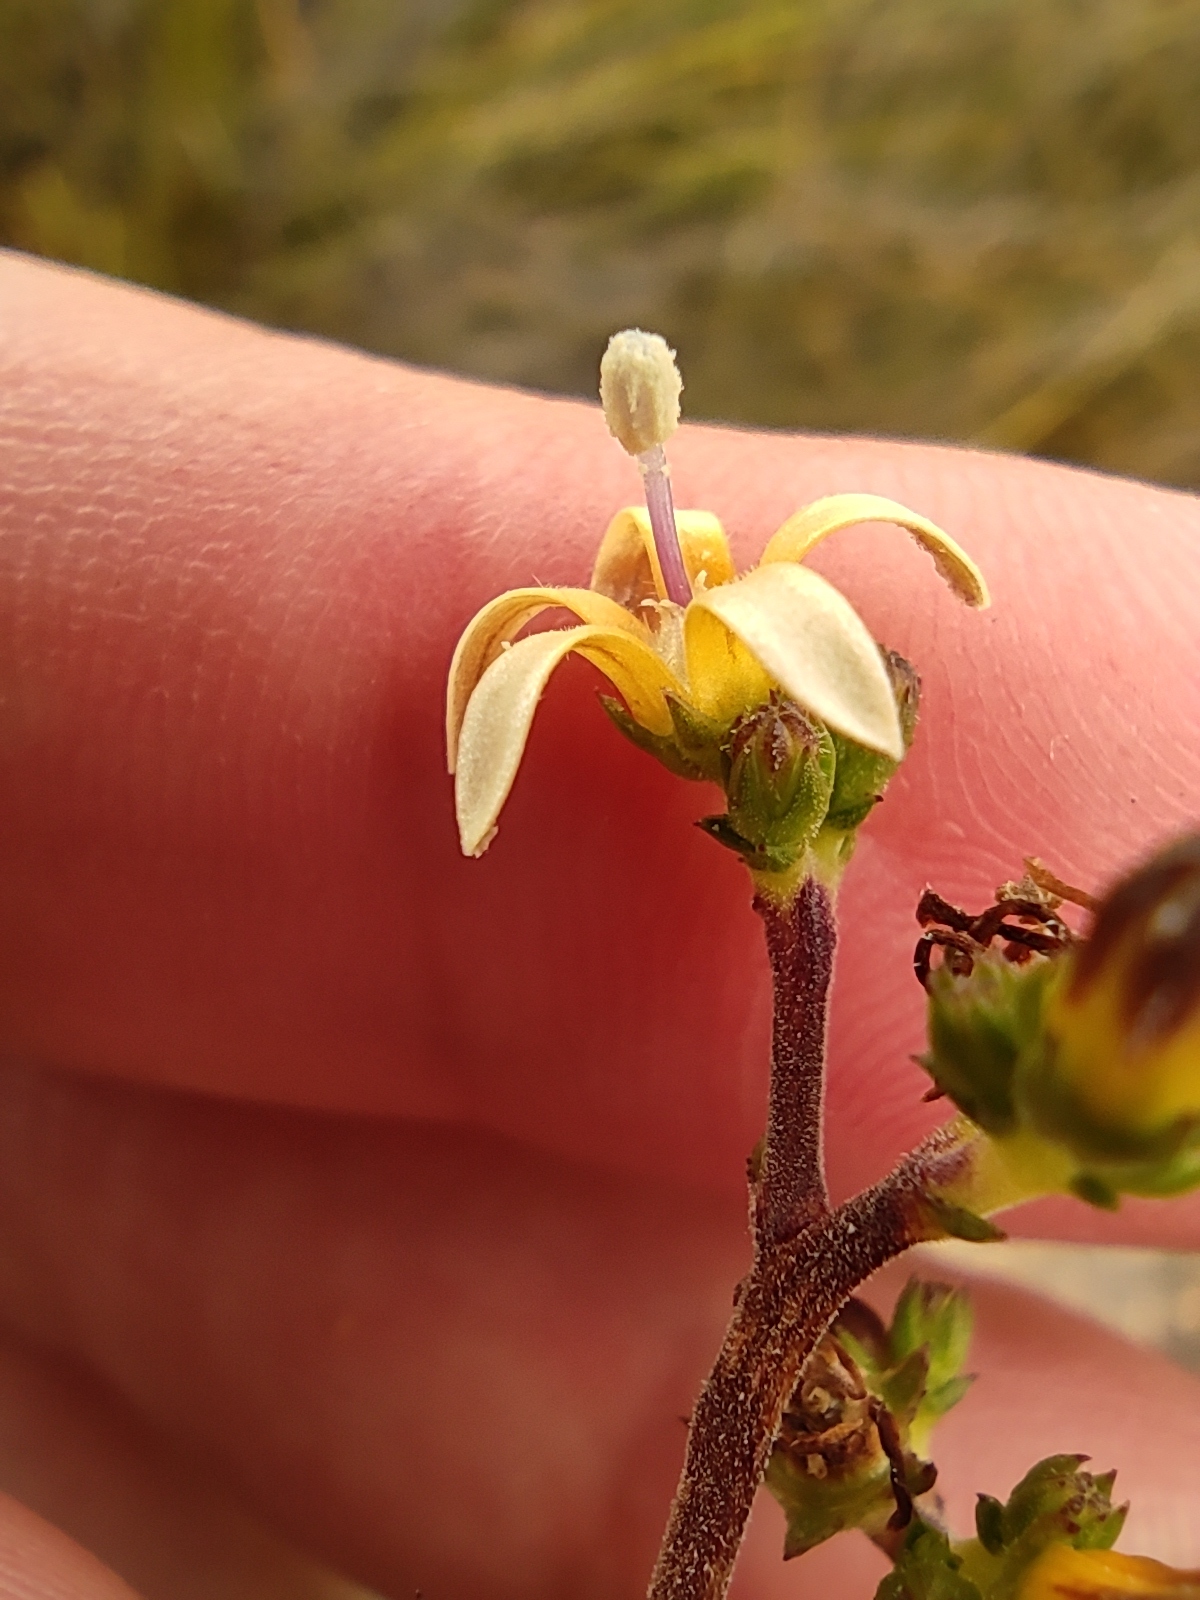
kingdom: Plantae
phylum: Tracheophyta
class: Magnoliopsida
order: Asterales
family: Campanulaceae
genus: Wahlenbergia
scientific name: Wahlenbergia nodosa
